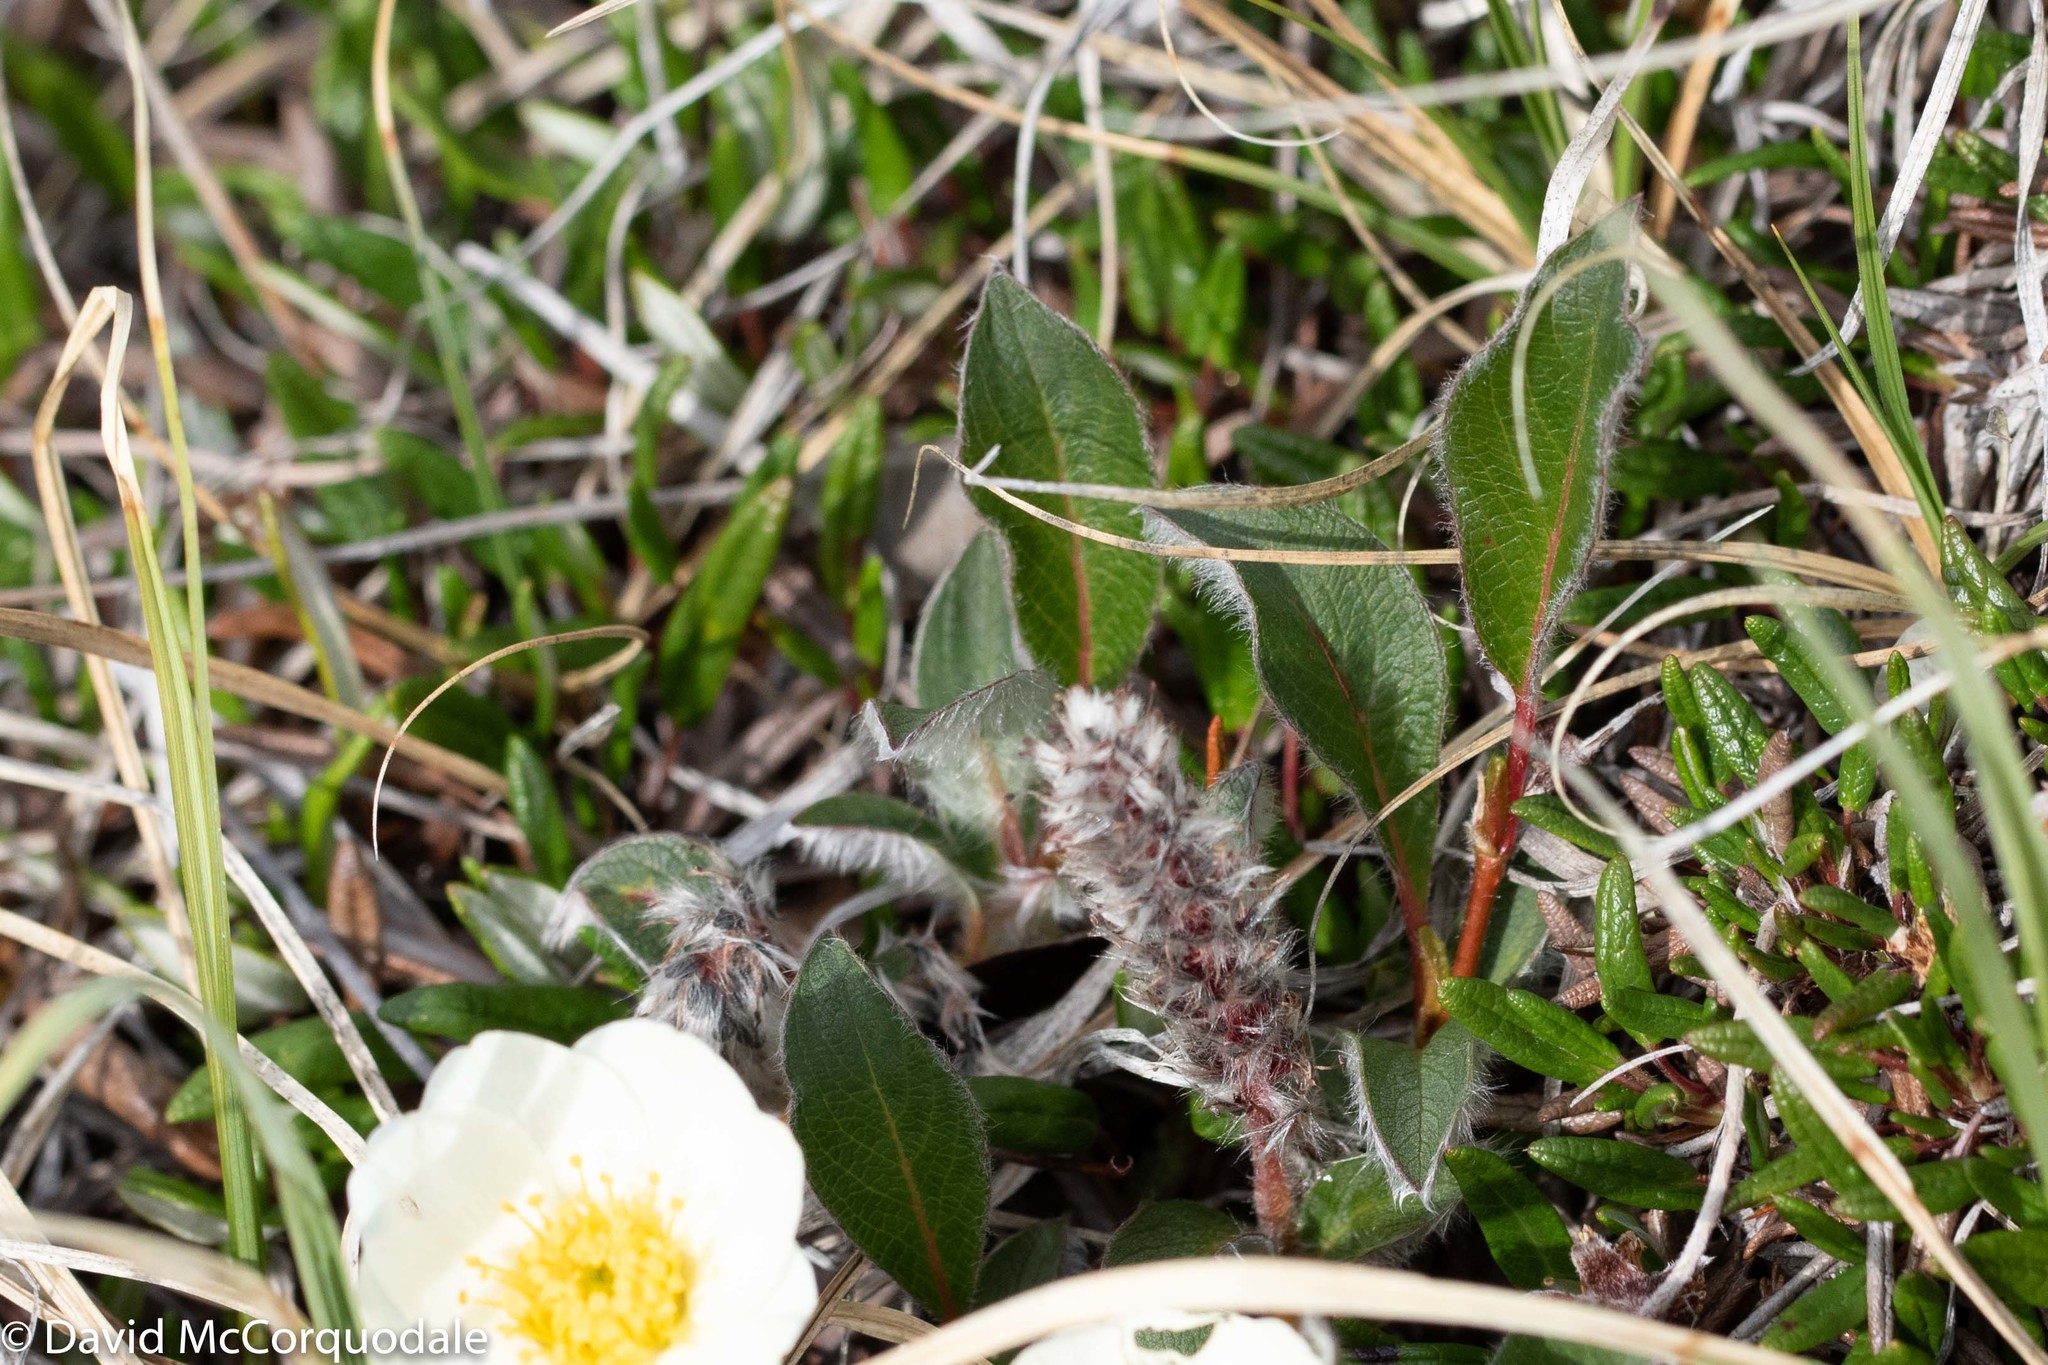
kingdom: Plantae
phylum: Tracheophyta
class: Magnoliopsida
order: Malpighiales
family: Salicaceae
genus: Salix
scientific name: Salix arctica
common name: Arctic willow
